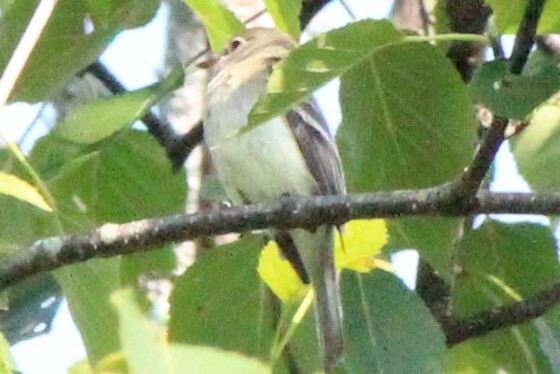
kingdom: Animalia
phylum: Chordata
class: Aves
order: Passeriformes
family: Tyrannidae
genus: Empidonax
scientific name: Empidonax minimus
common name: Least flycatcher
